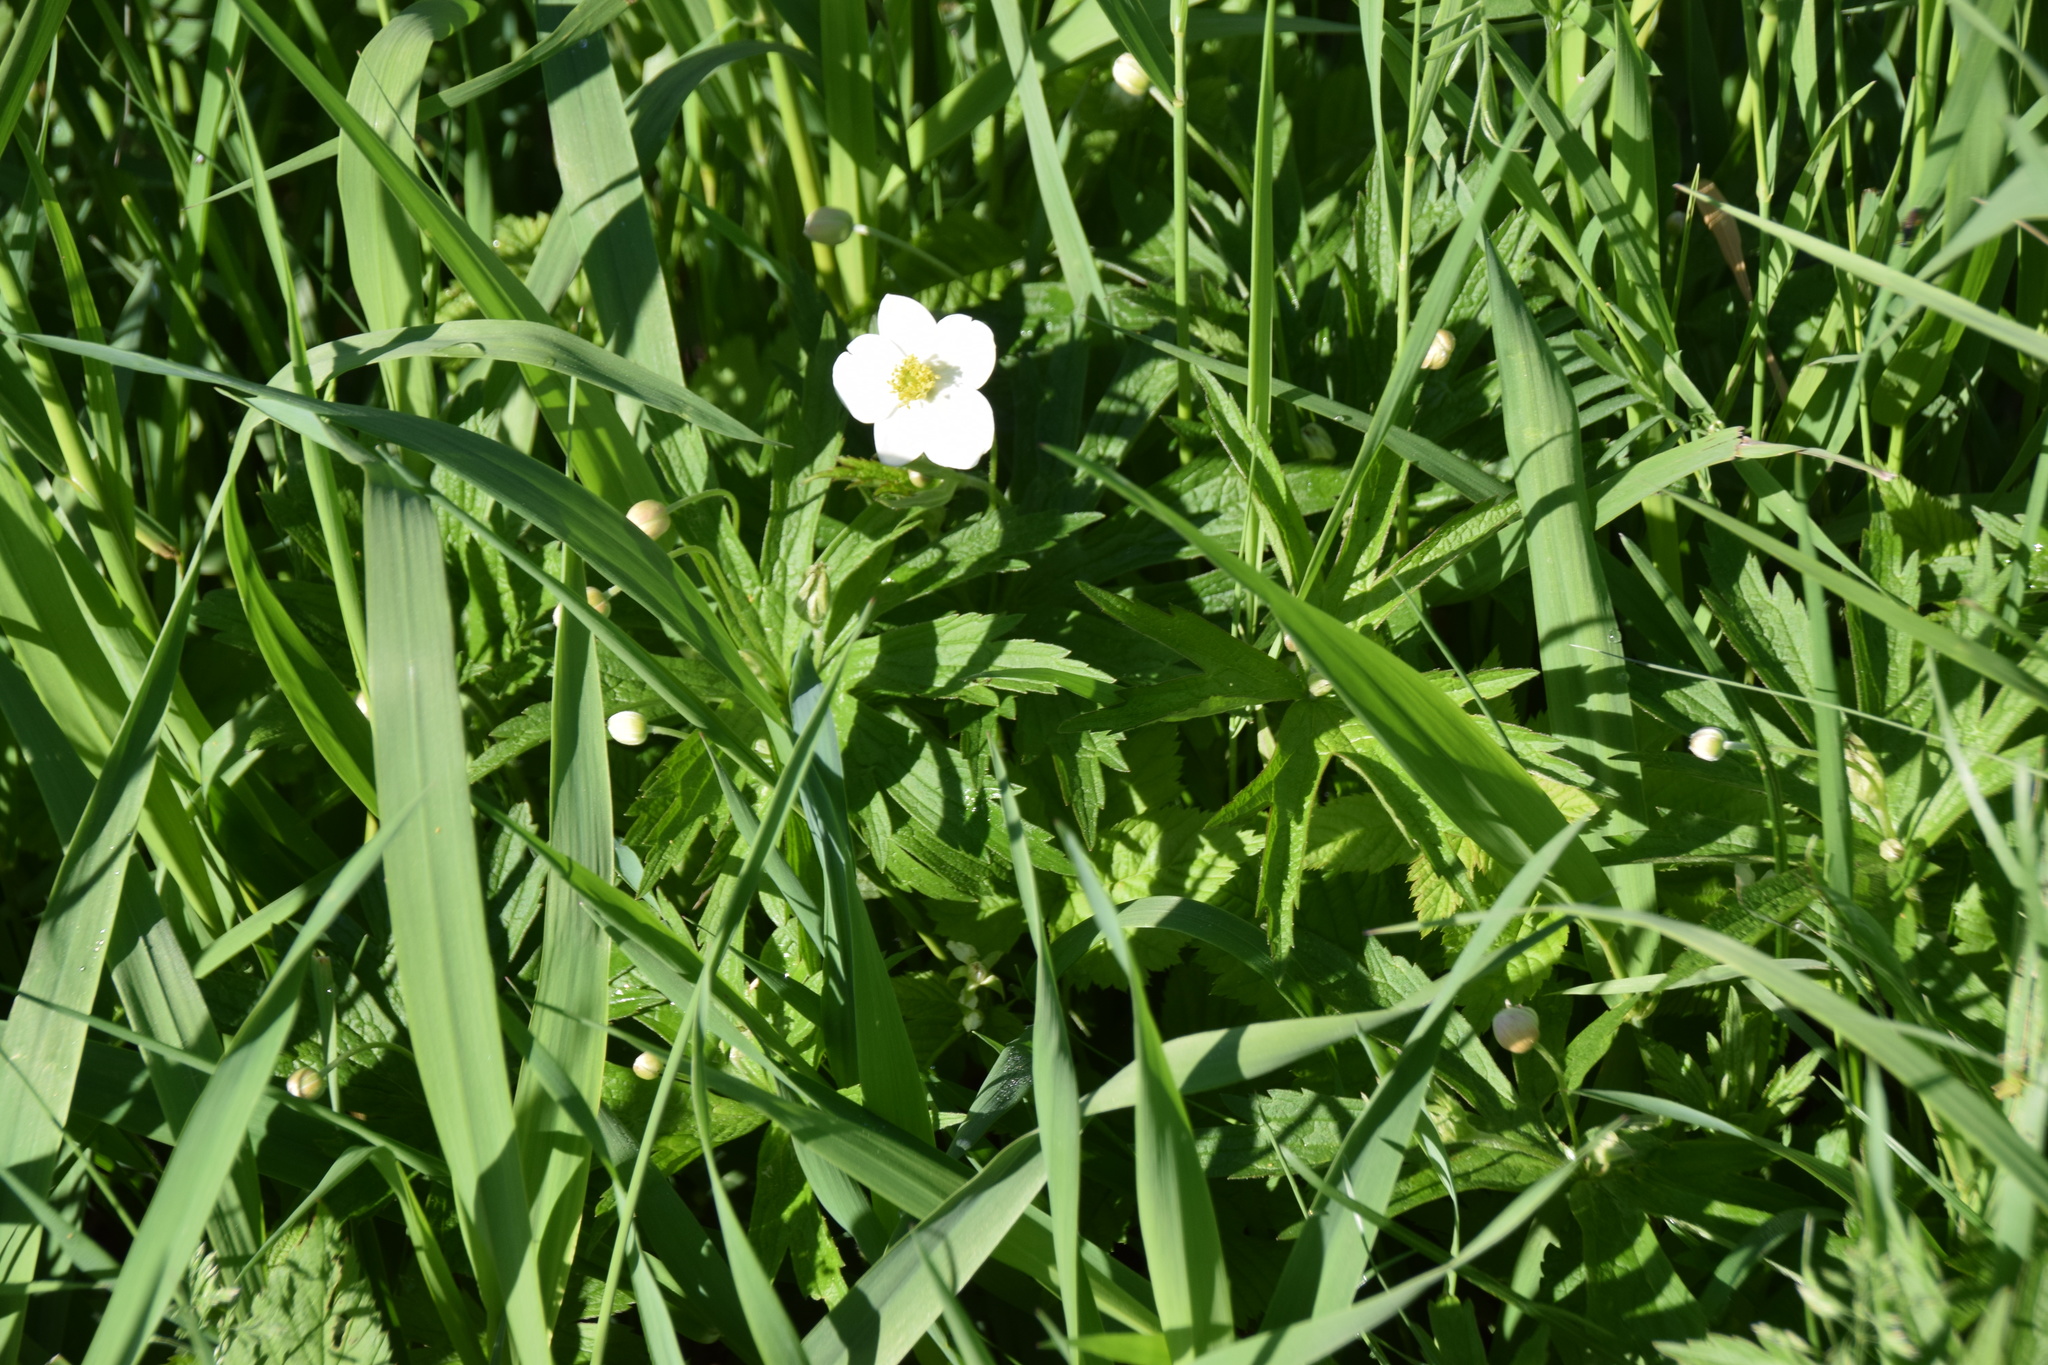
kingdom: Plantae
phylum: Tracheophyta
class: Magnoliopsida
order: Ranunculales
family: Ranunculaceae
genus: Anemonastrum
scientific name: Anemonastrum canadense
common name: Canada anemone
